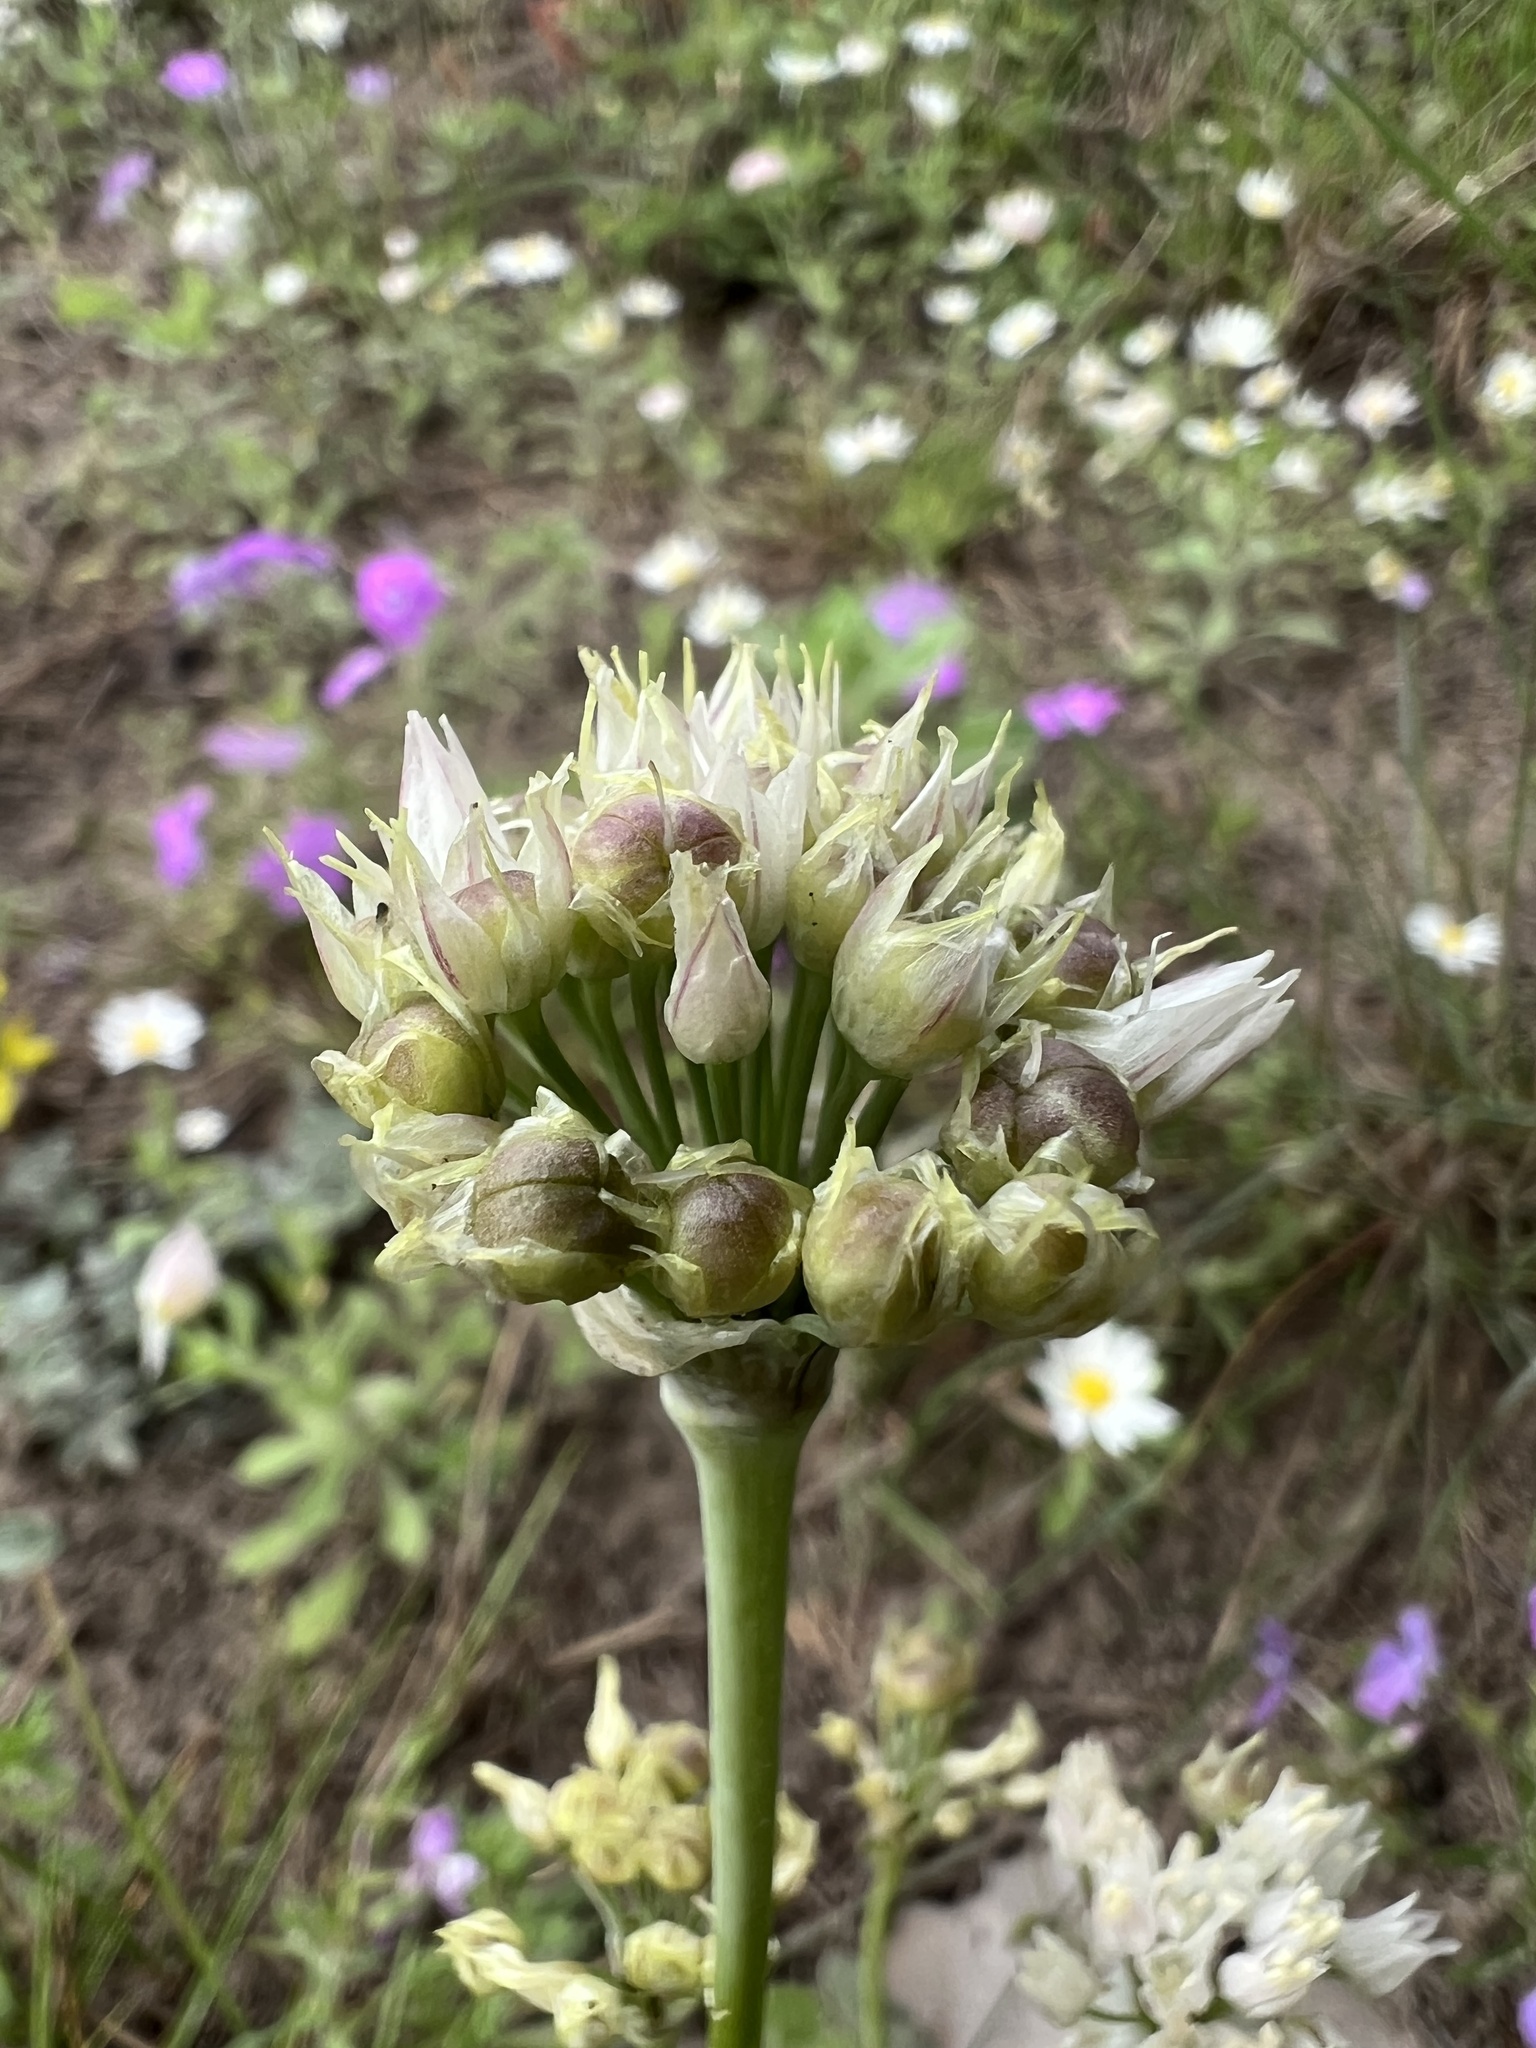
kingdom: Plantae
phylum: Tracheophyta
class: Liliopsida
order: Asparagales
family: Amaryllidaceae
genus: Allium
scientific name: Allium runyonii
